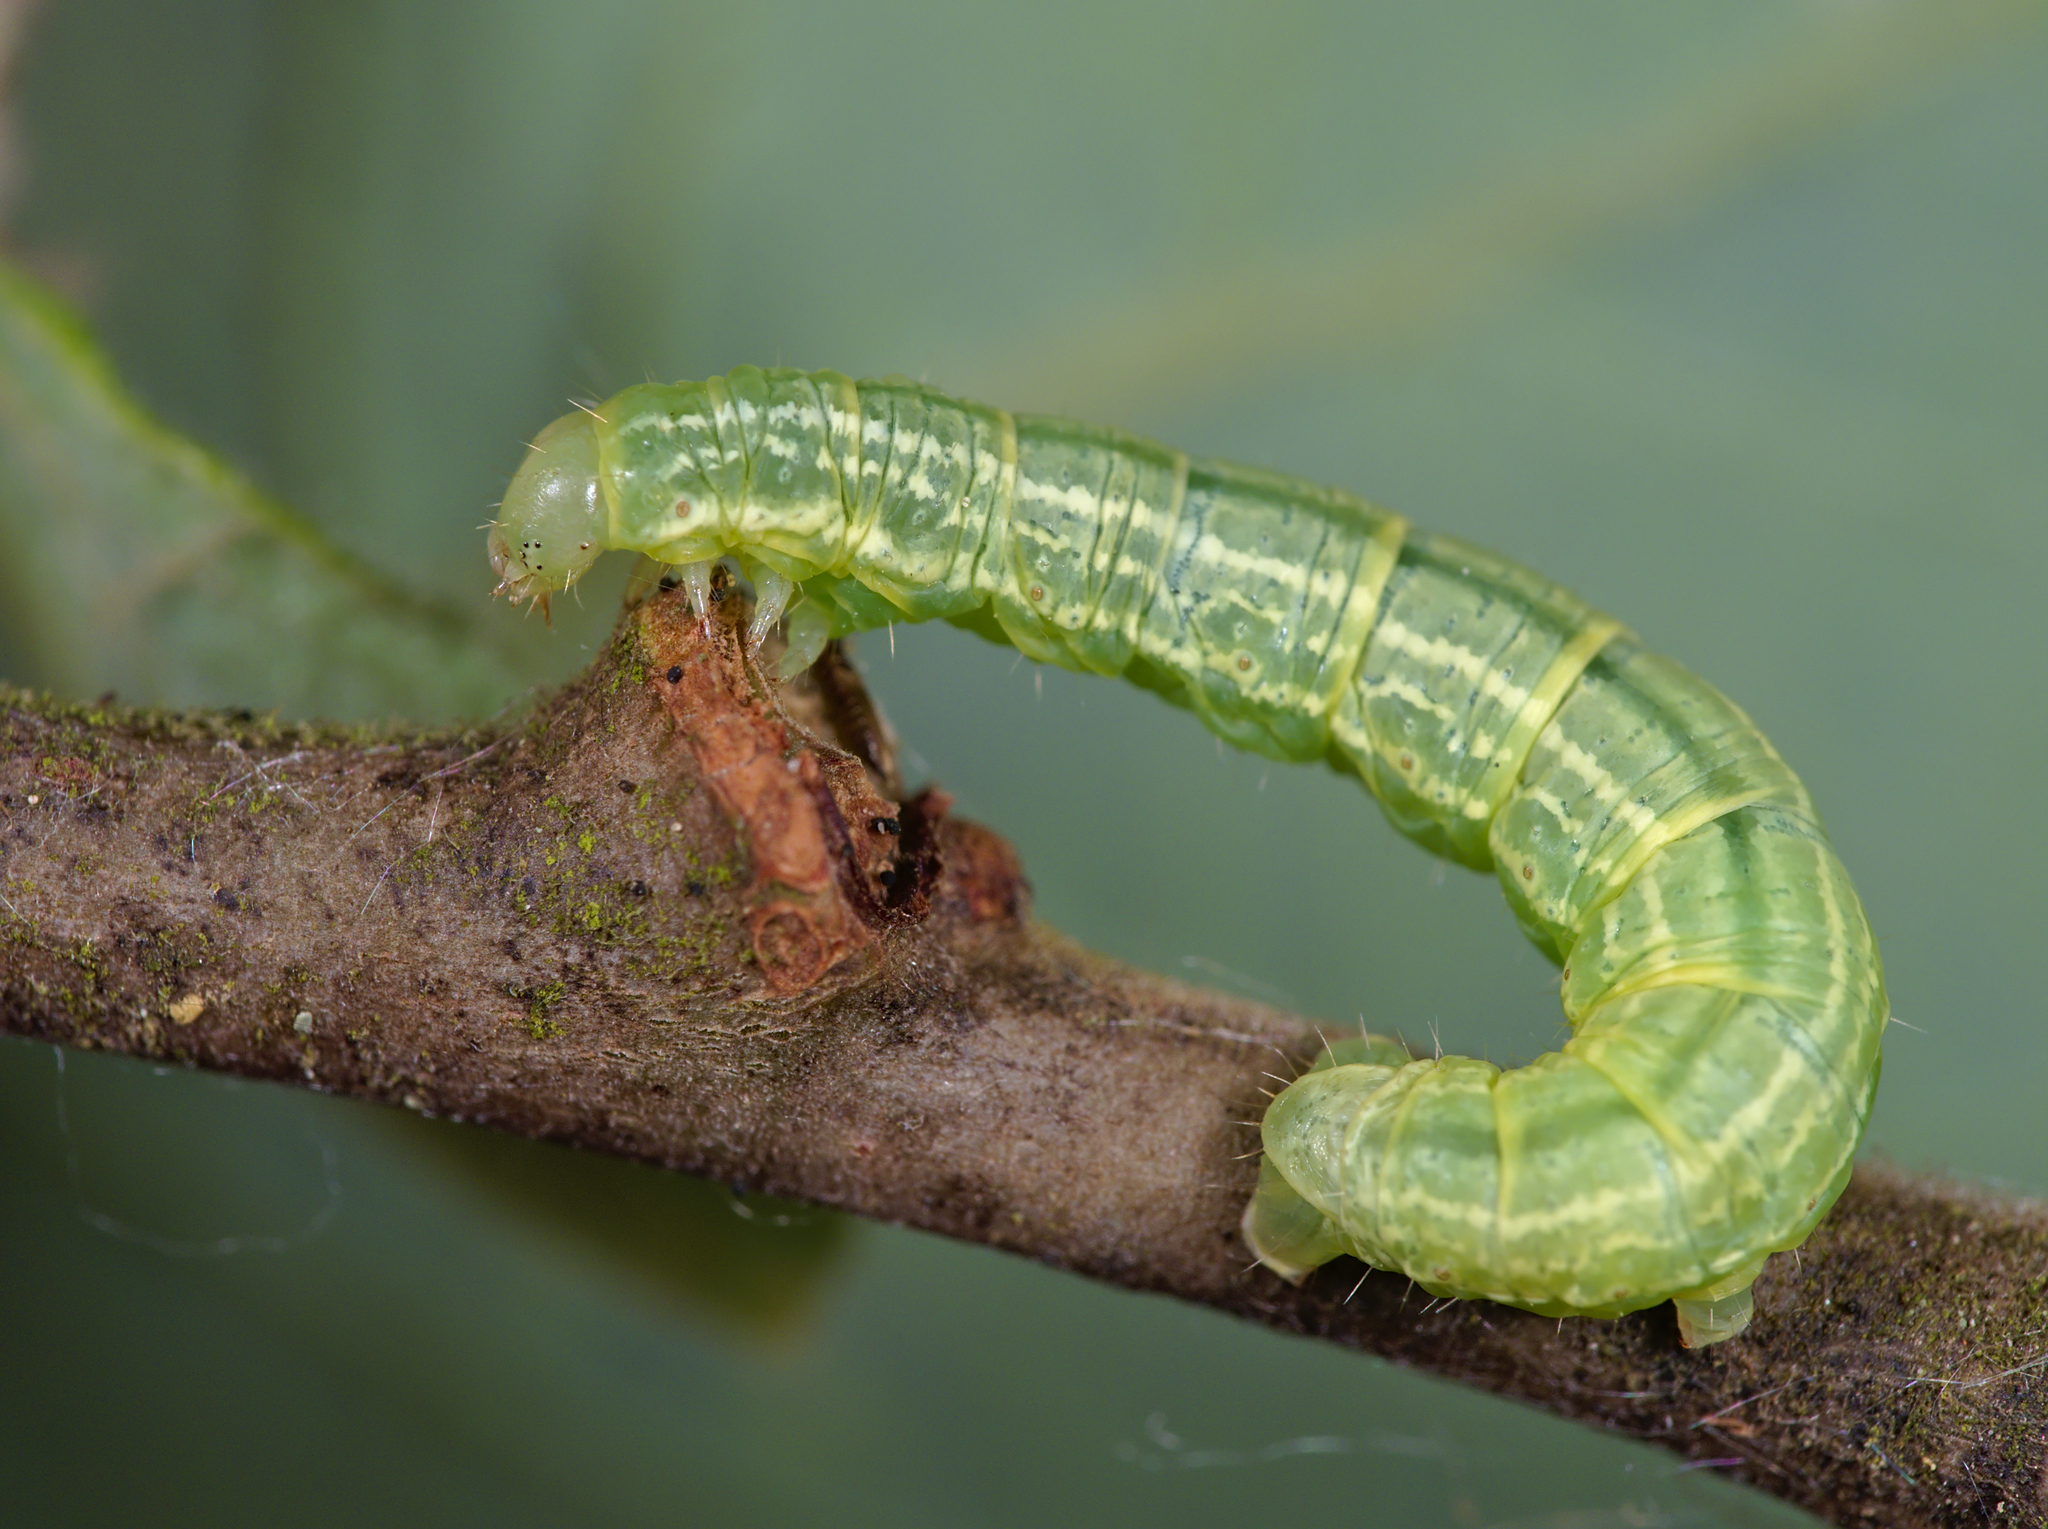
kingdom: Animalia
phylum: Arthropoda
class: Insecta
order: Lepidoptera
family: Geometridae
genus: Operophtera
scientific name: Operophtera brumata
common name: Winter moth
